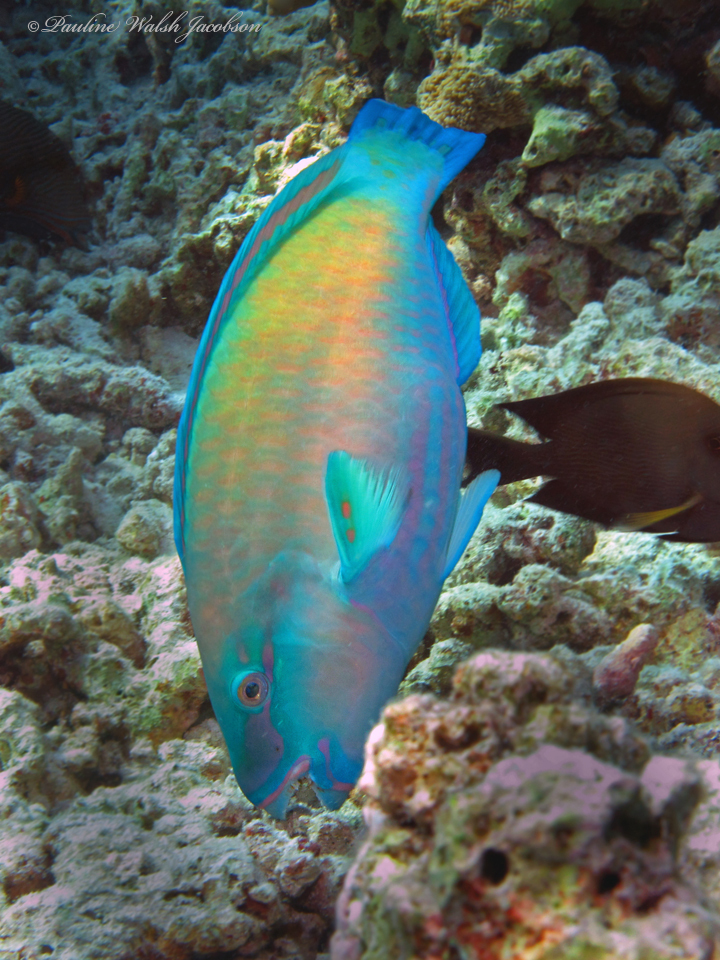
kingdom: Animalia
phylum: Chordata
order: Perciformes
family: Scaridae
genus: Chlorurus
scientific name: Chlorurus spilurus
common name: Bullethead parrotfish
